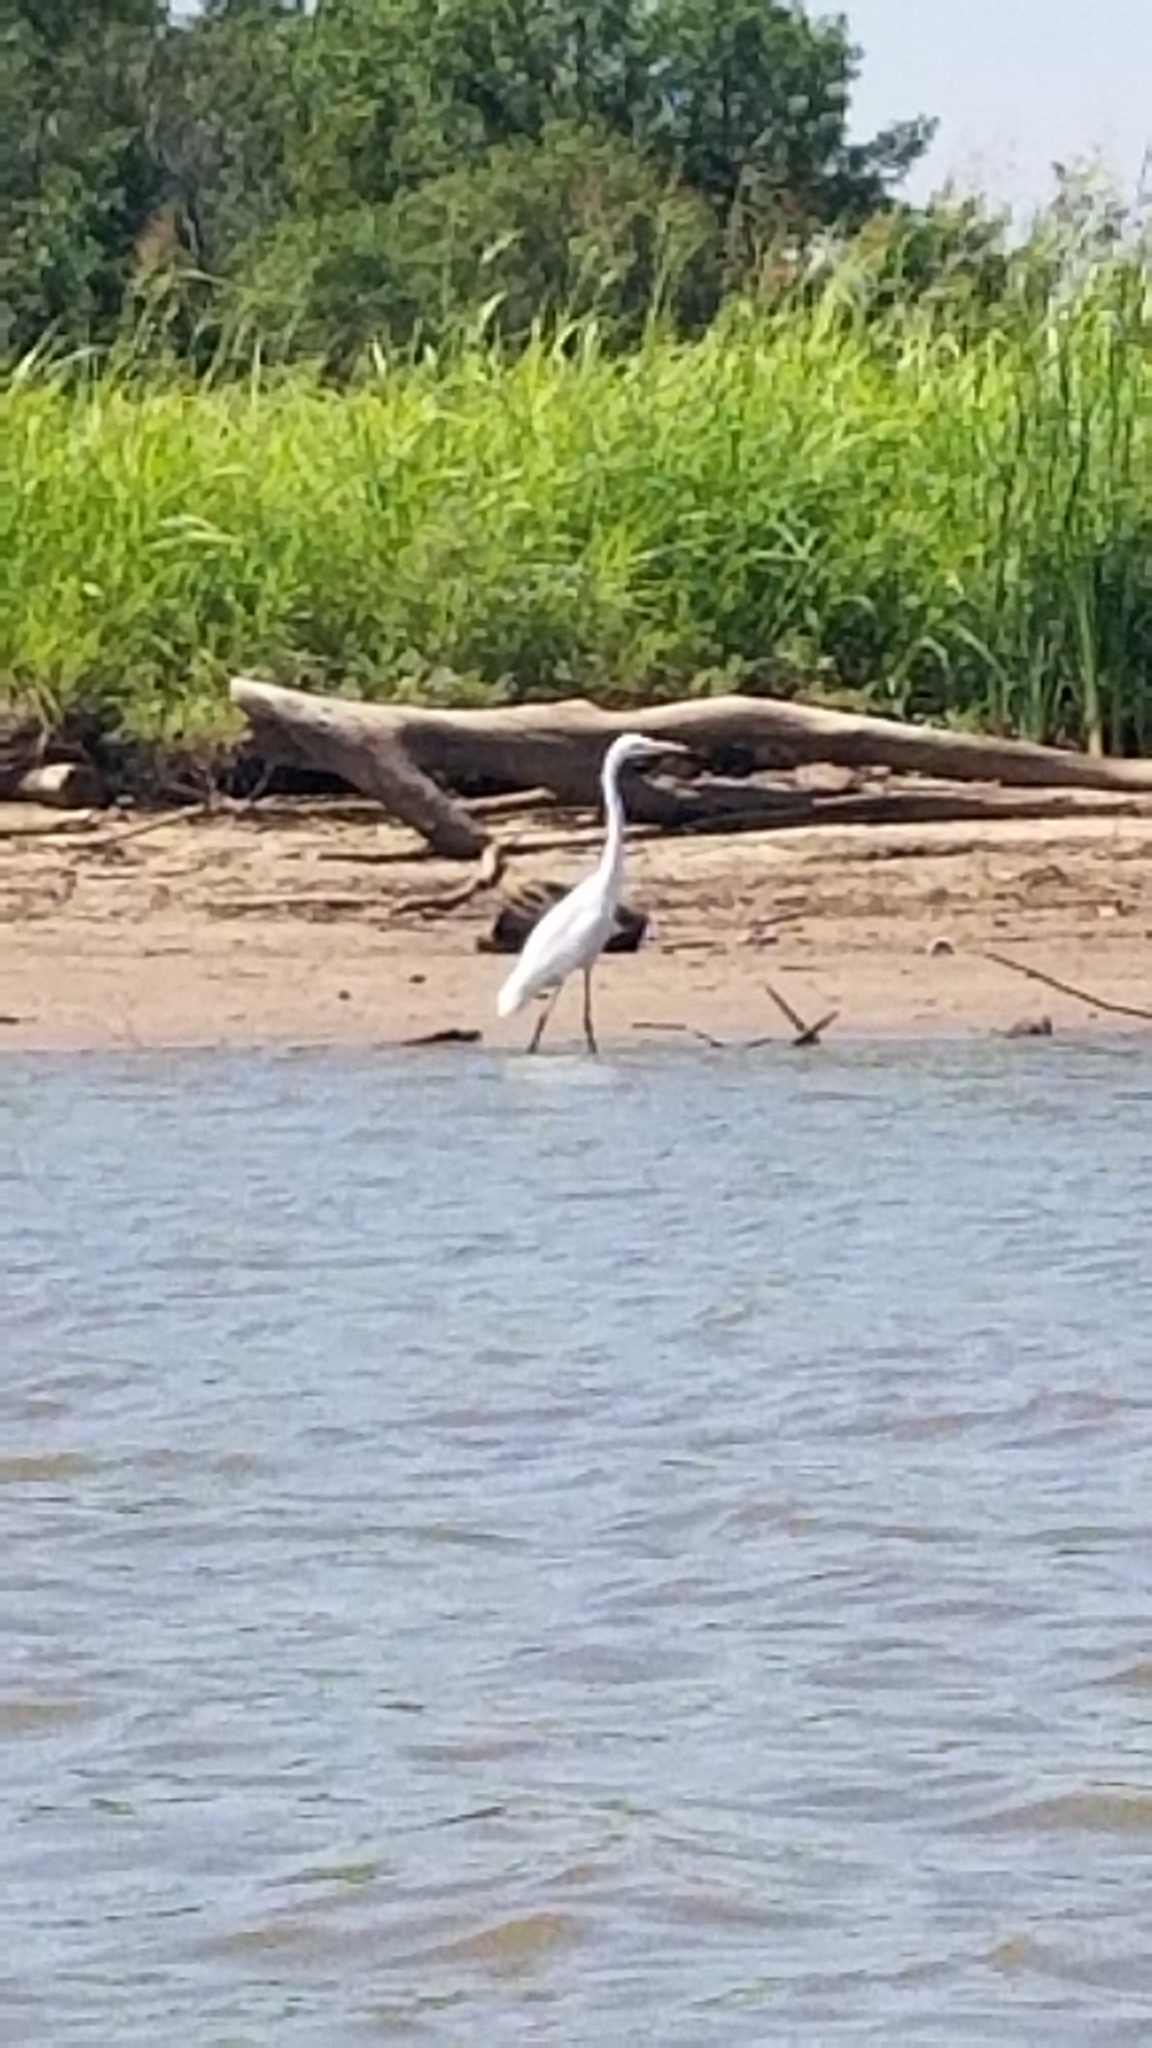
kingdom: Animalia
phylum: Chordata
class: Aves
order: Pelecaniformes
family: Ardeidae
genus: Ardea
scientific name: Ardea alba
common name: Great egret
